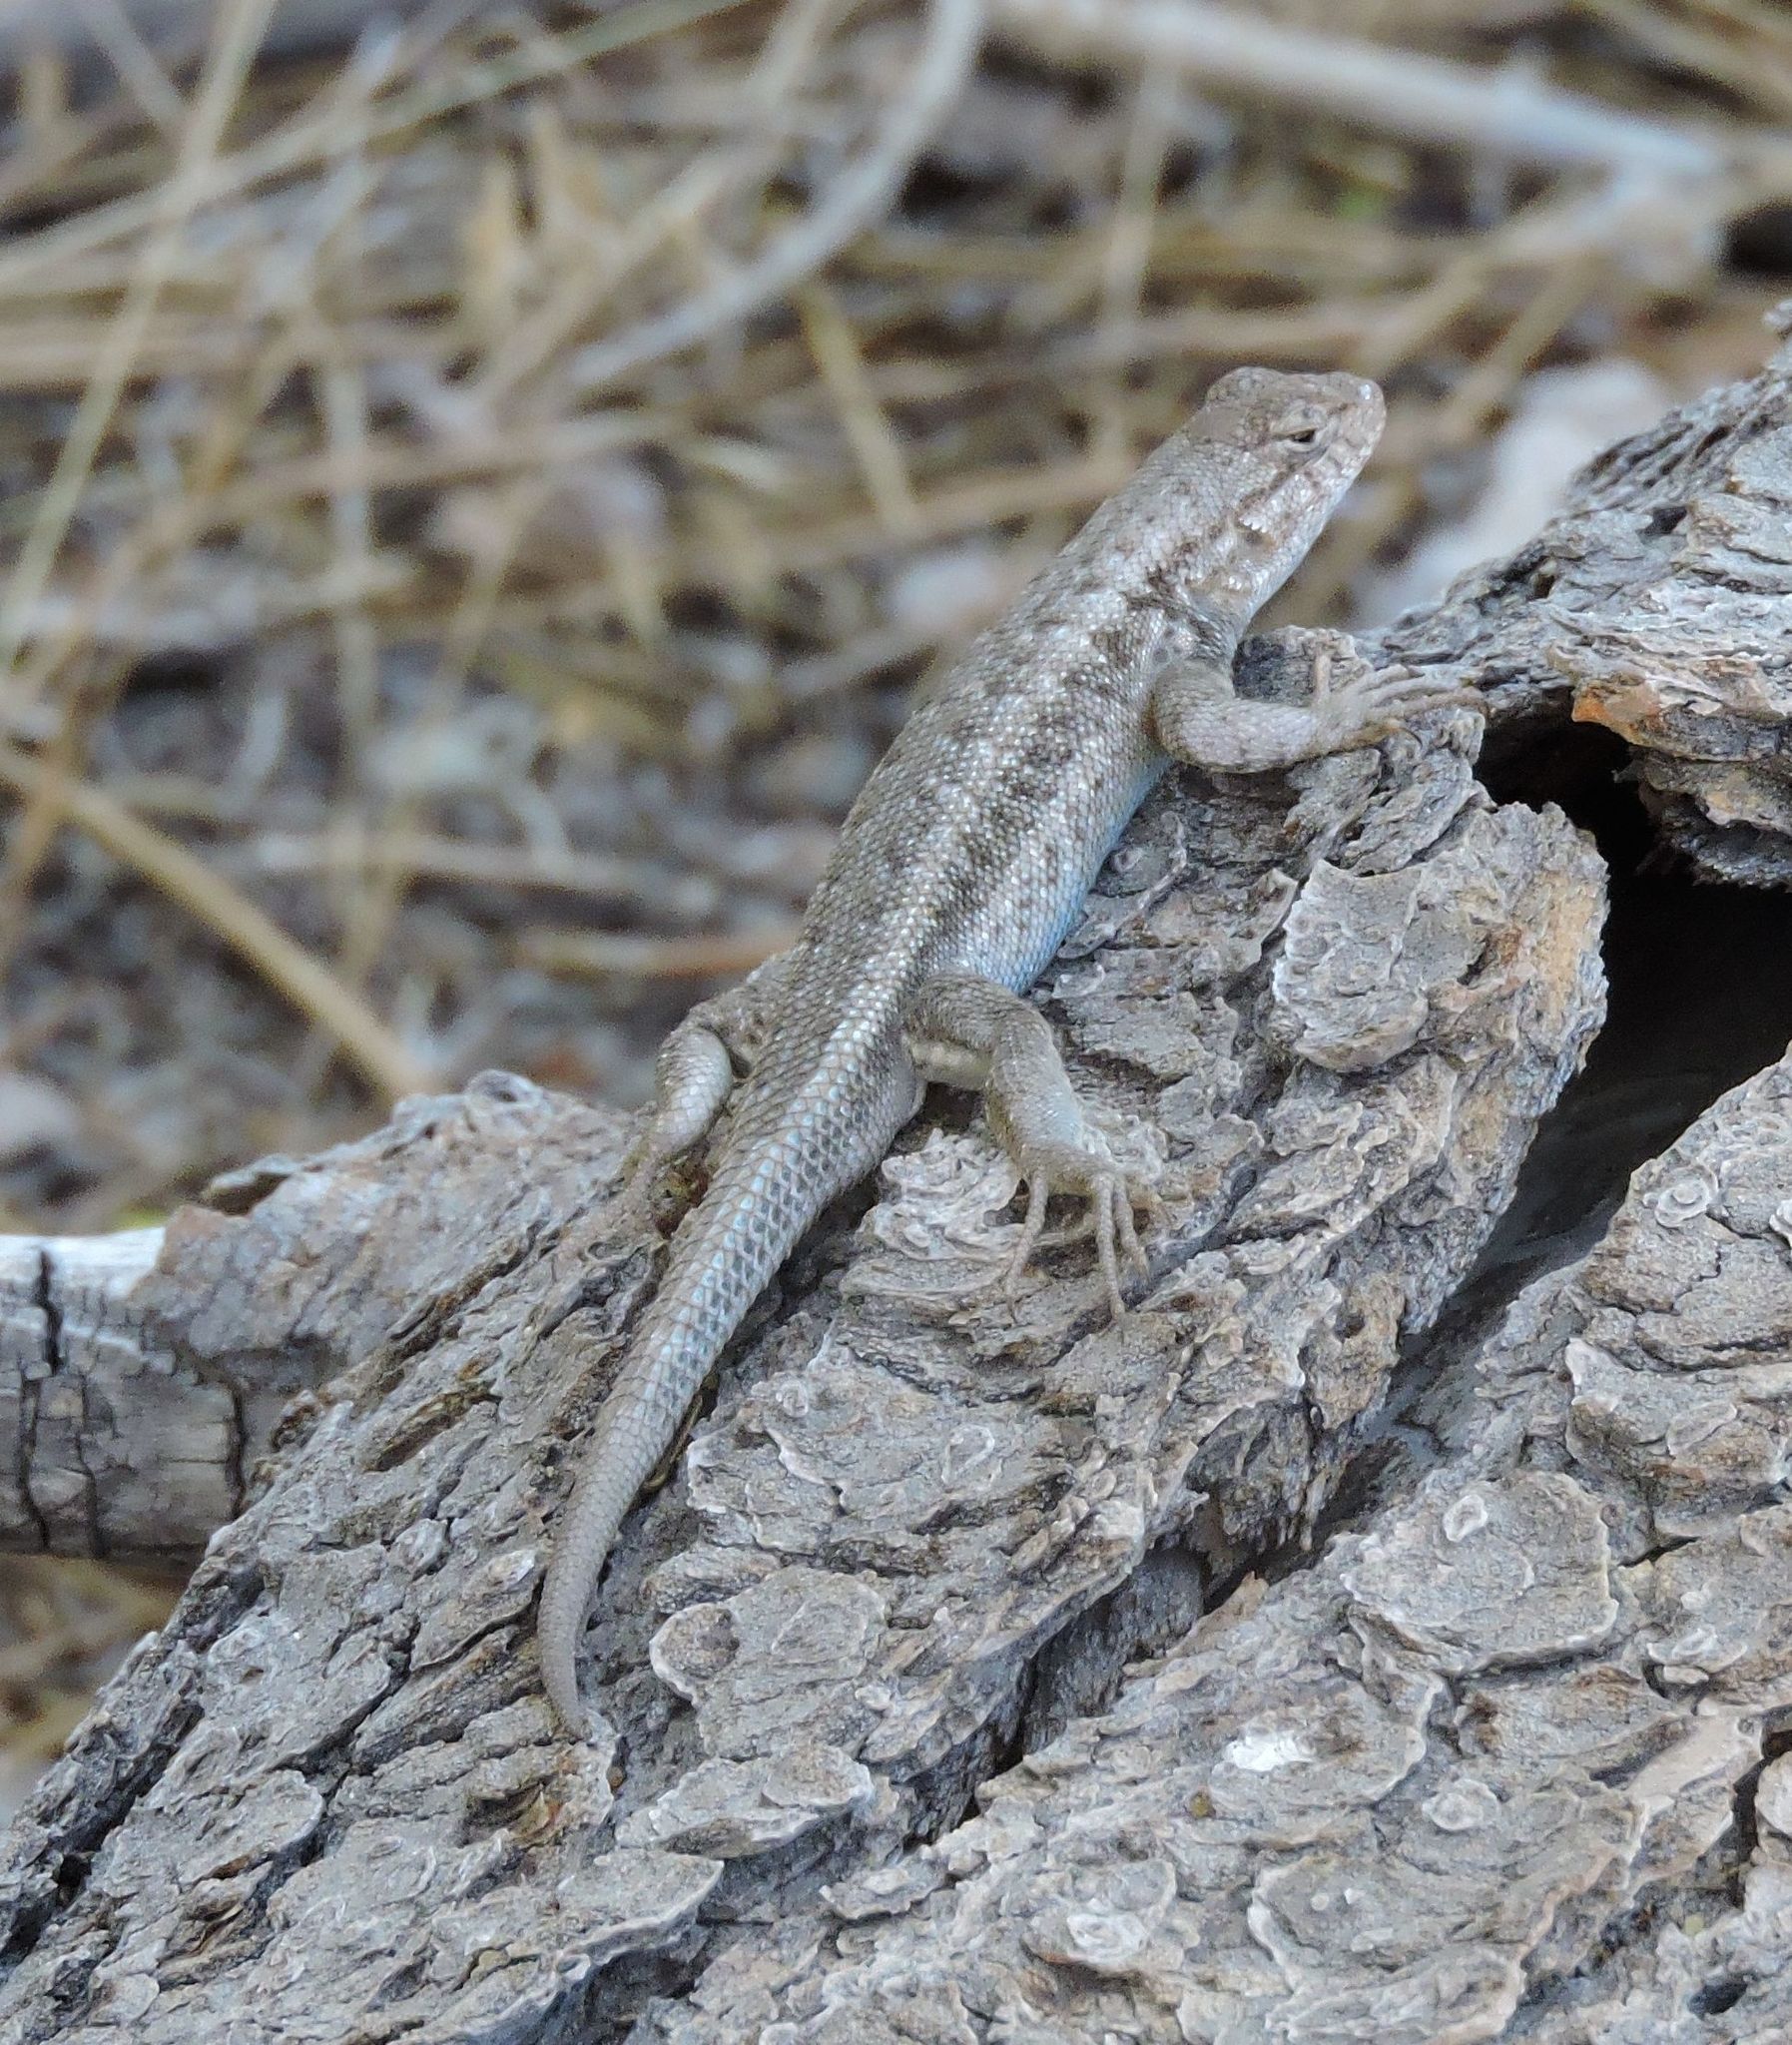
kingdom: Animalia
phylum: Chordata
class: Squamata
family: Phrynosomatidae
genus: Sceloporus
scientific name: Sceloporus graciosus
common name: Sagebrush lizard
